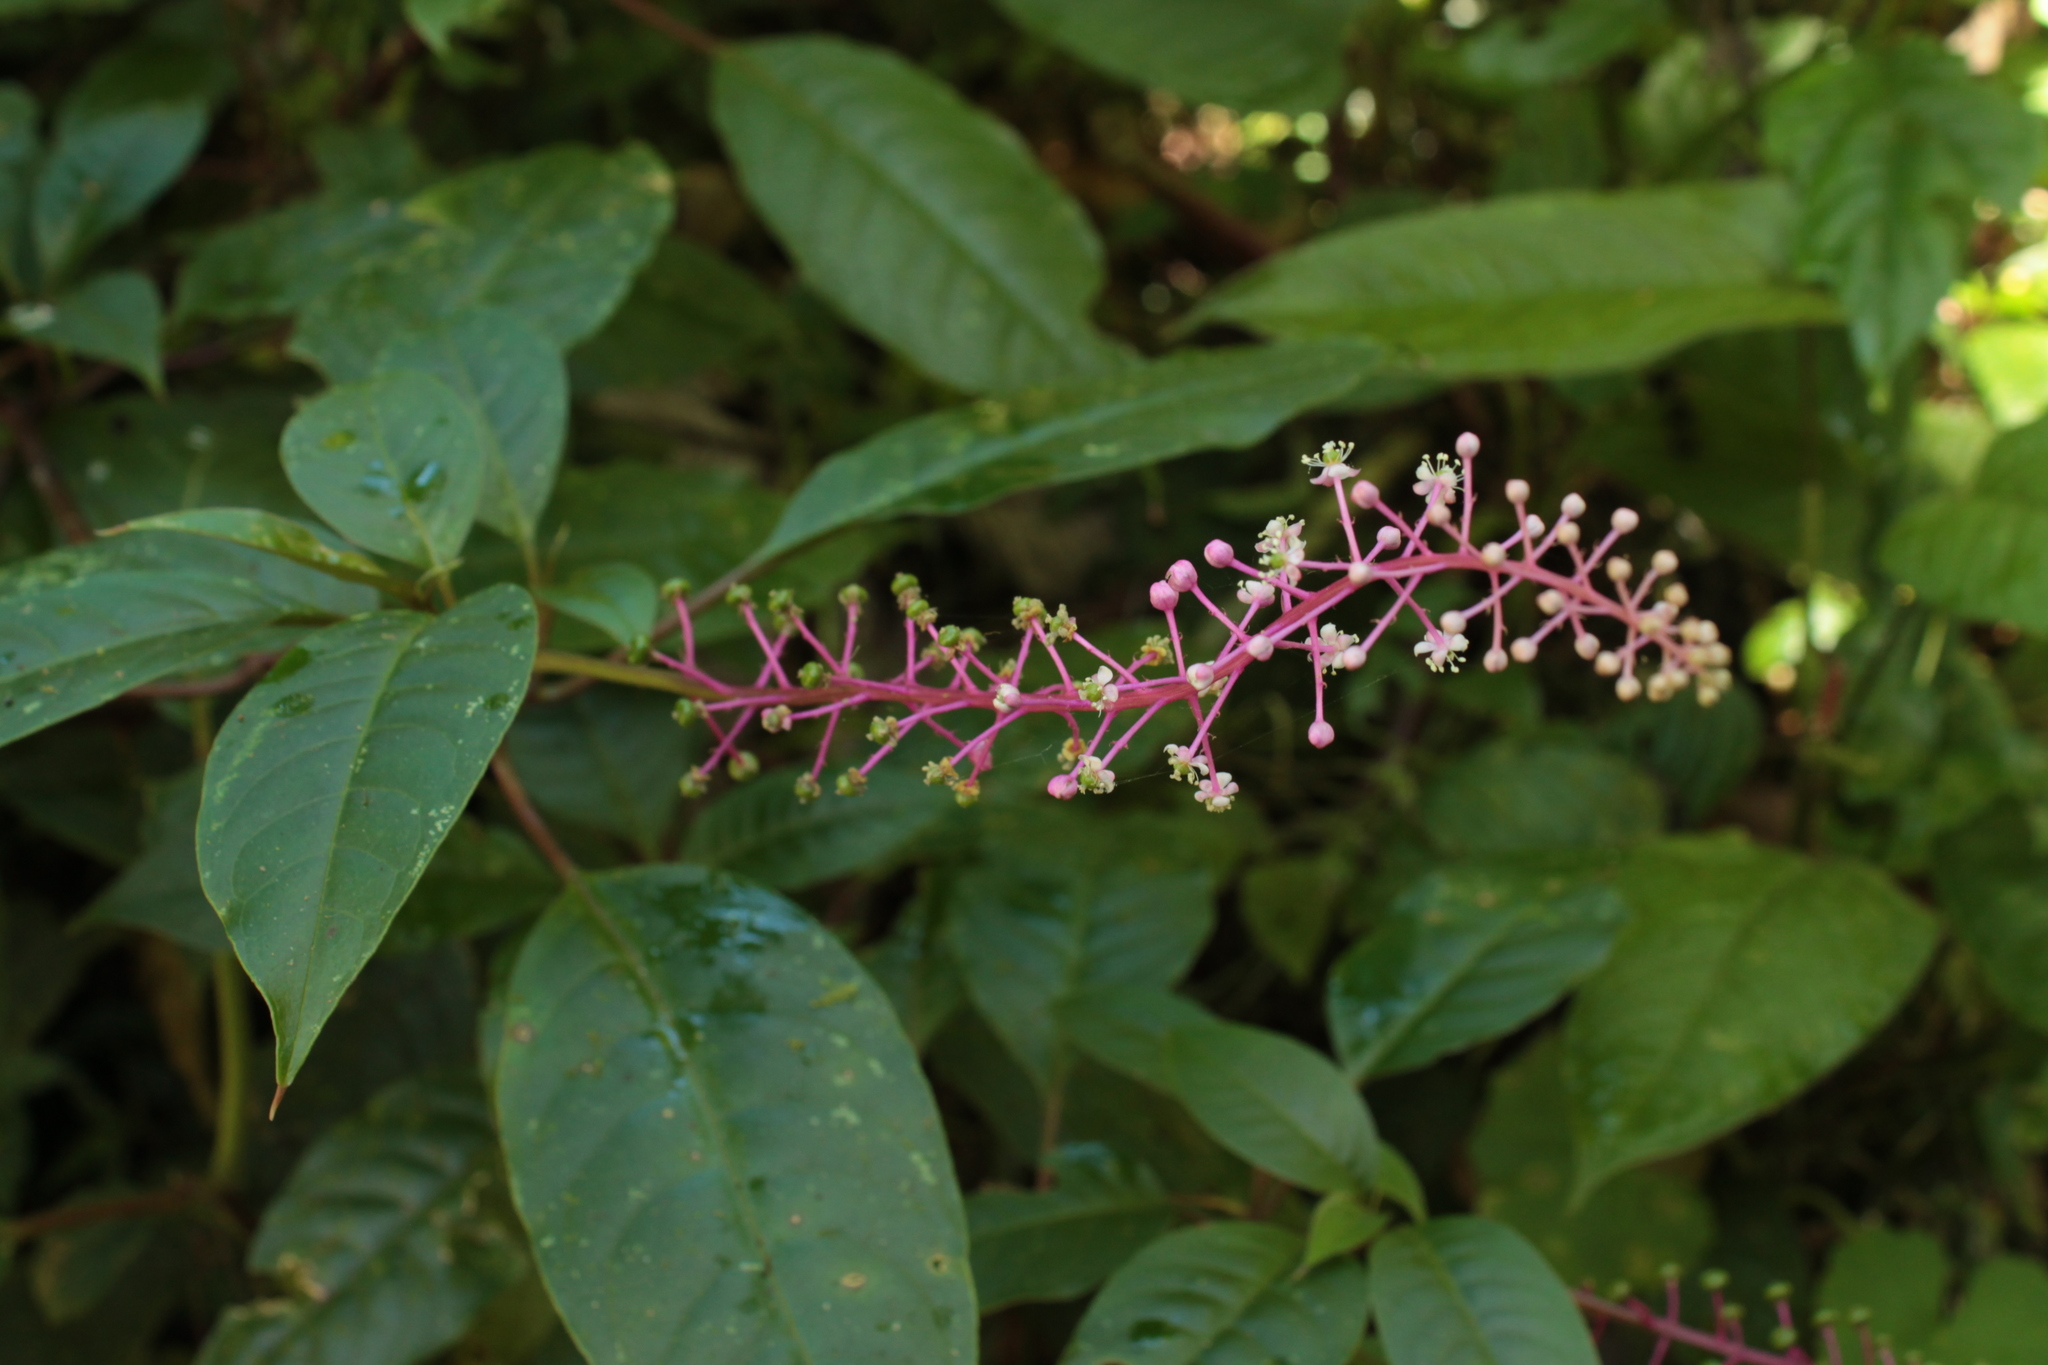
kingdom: Plantae
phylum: Tracheophyta
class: Magnoliopsida
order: Caryophyllales
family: Phytolaccaceae
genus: Phytolacca
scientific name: Phytolacca rivinoides
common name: Venezuelan pokeweed
